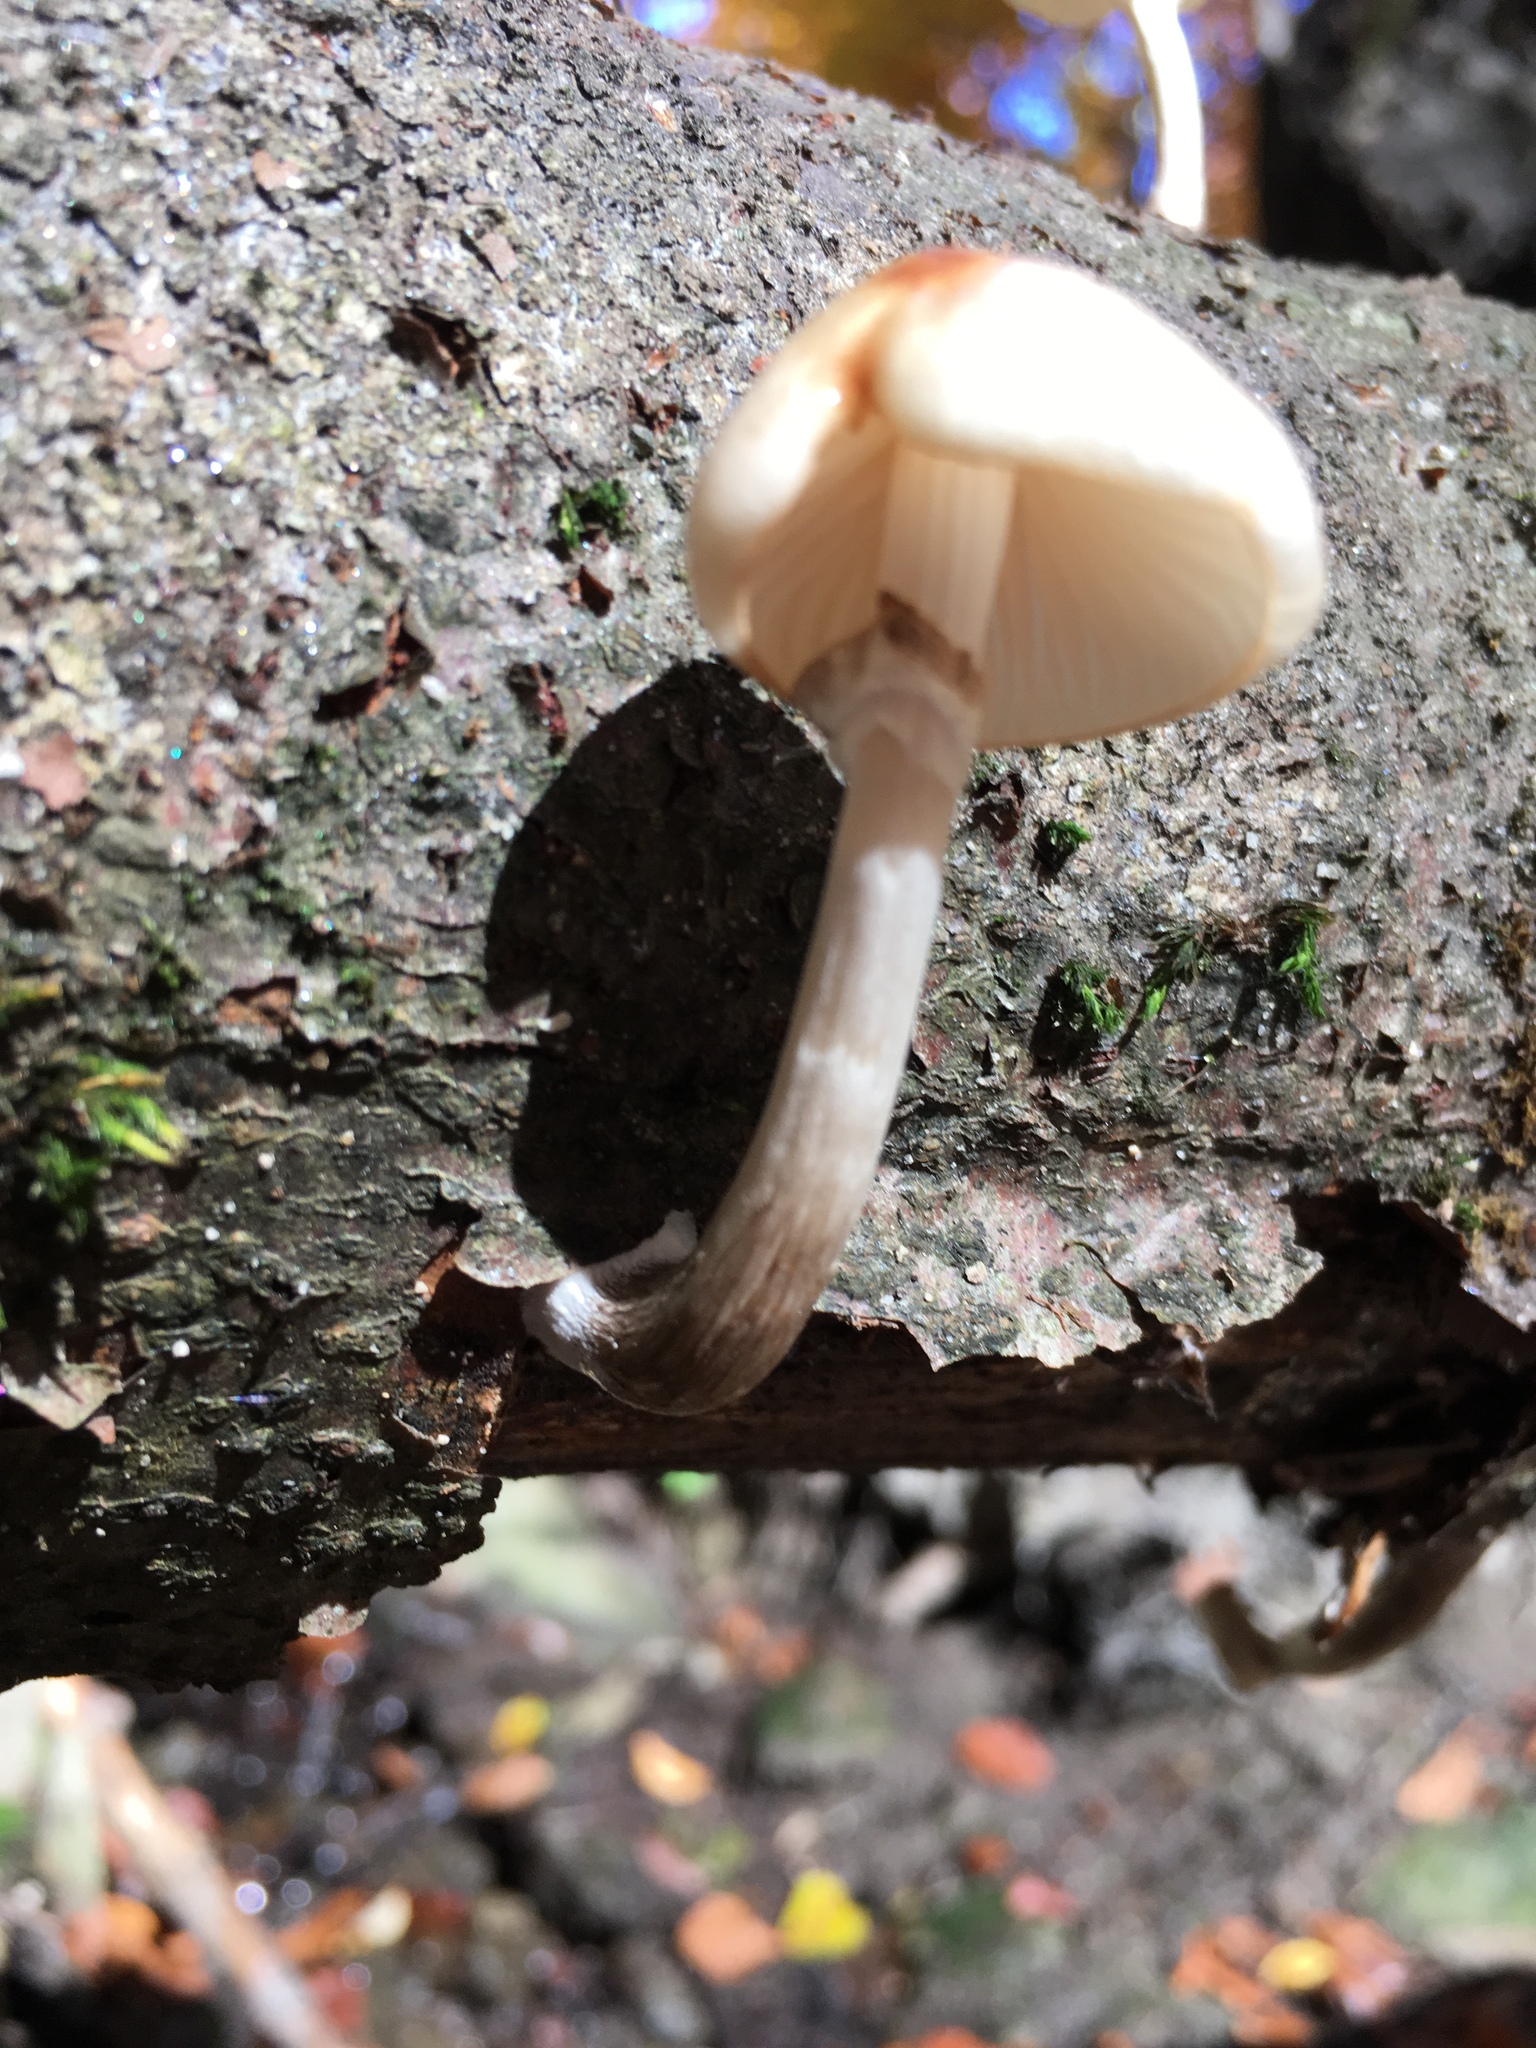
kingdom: Fungi
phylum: Basidiomycota
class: Agaricomycetes
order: Agaricales
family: Physalacriaceae
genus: Mucidula
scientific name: Mucidula mucida
